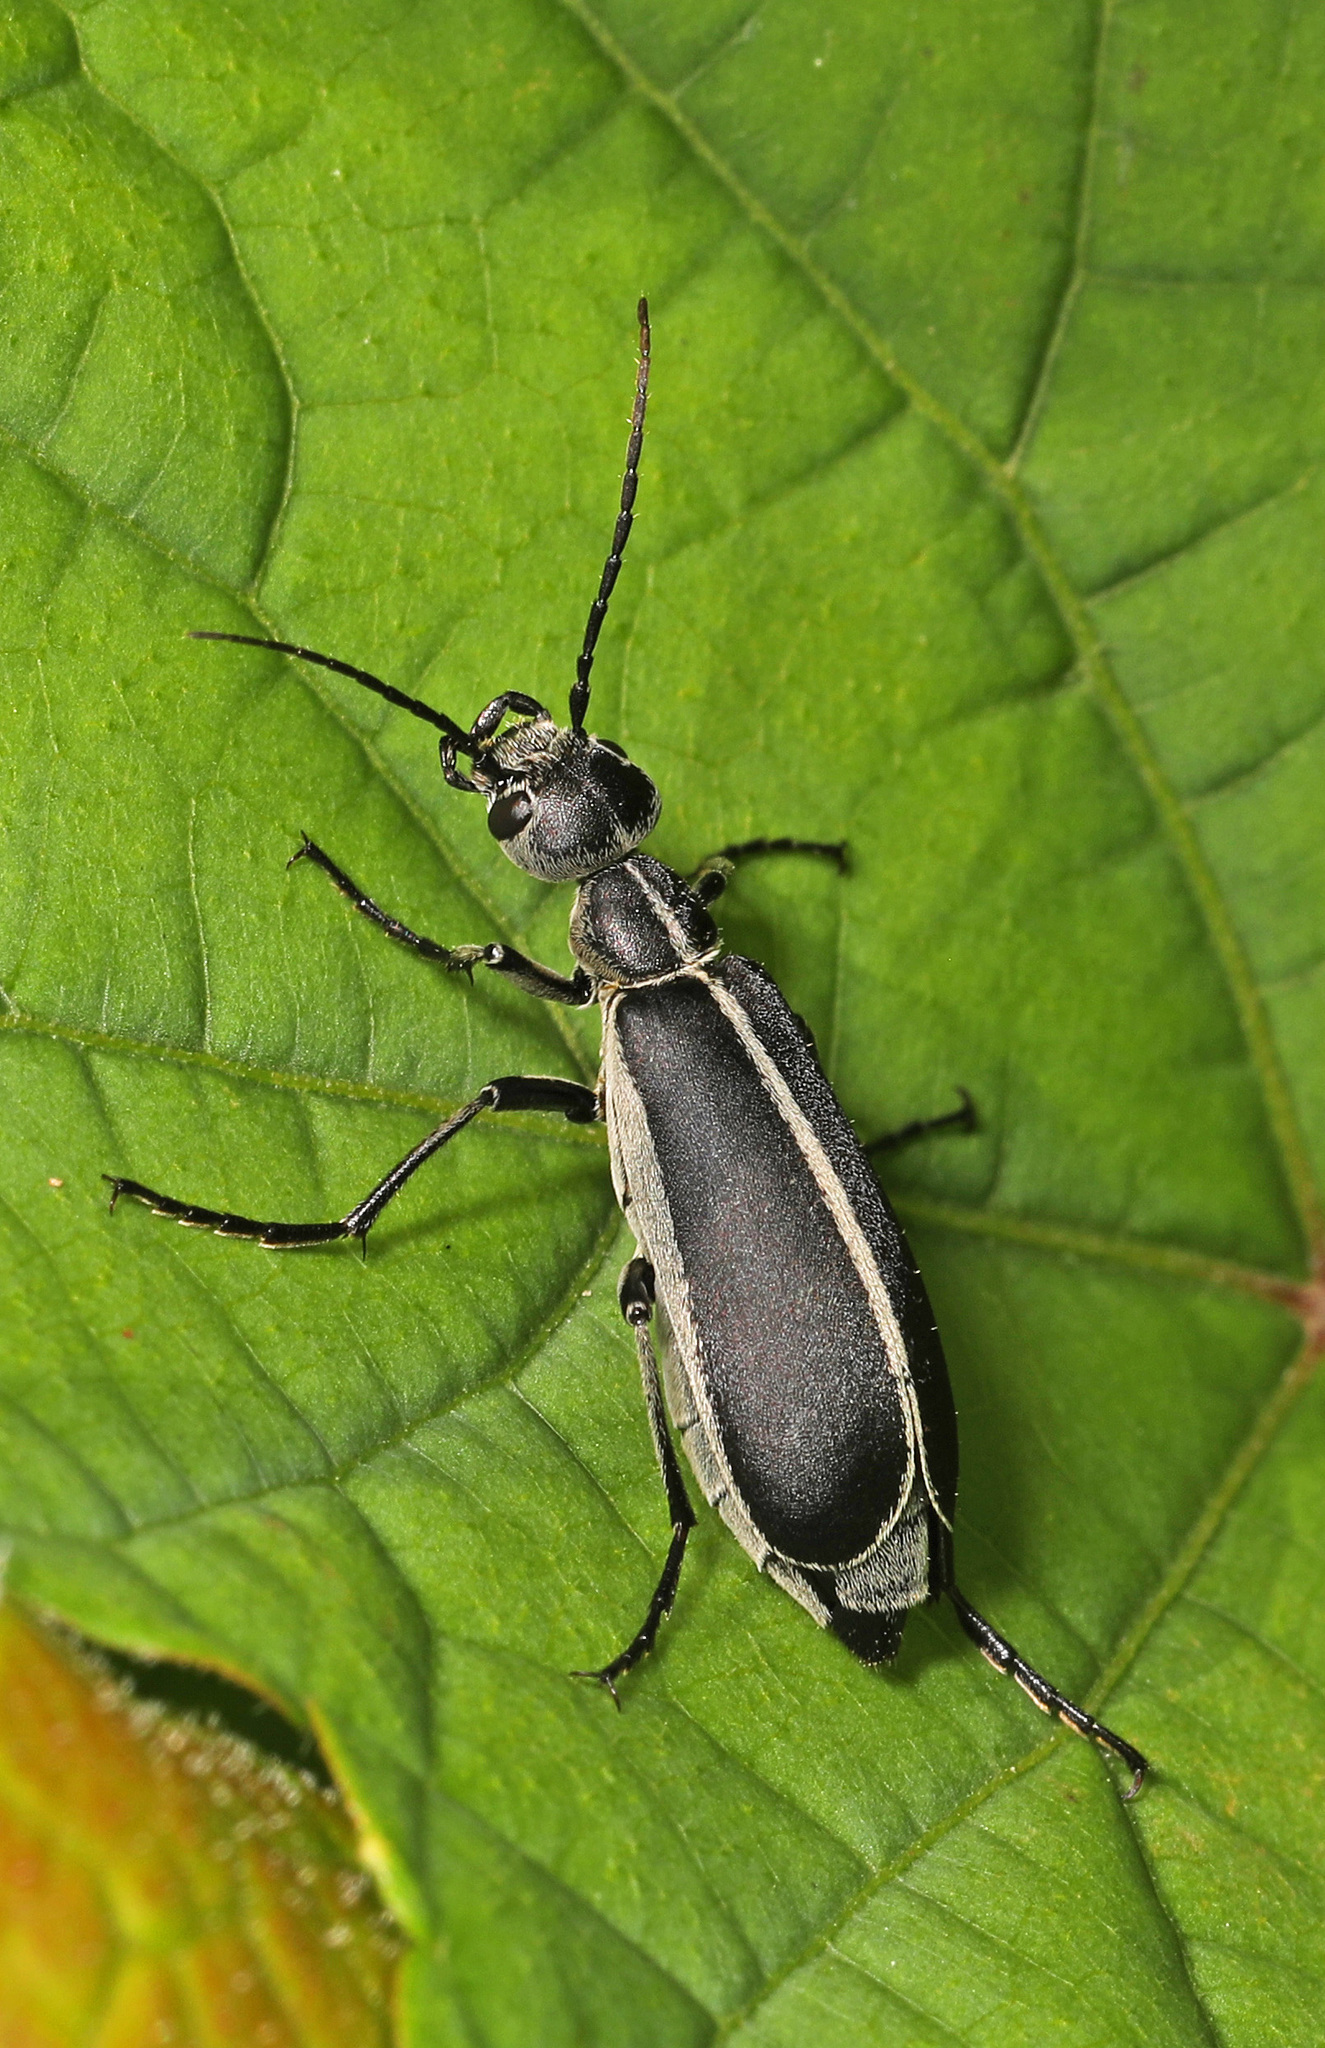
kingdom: Animalia
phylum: Arthropoda
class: Insecta
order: Coleoptera
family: Meloidae
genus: Epicauta
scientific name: Epicauta funebris
